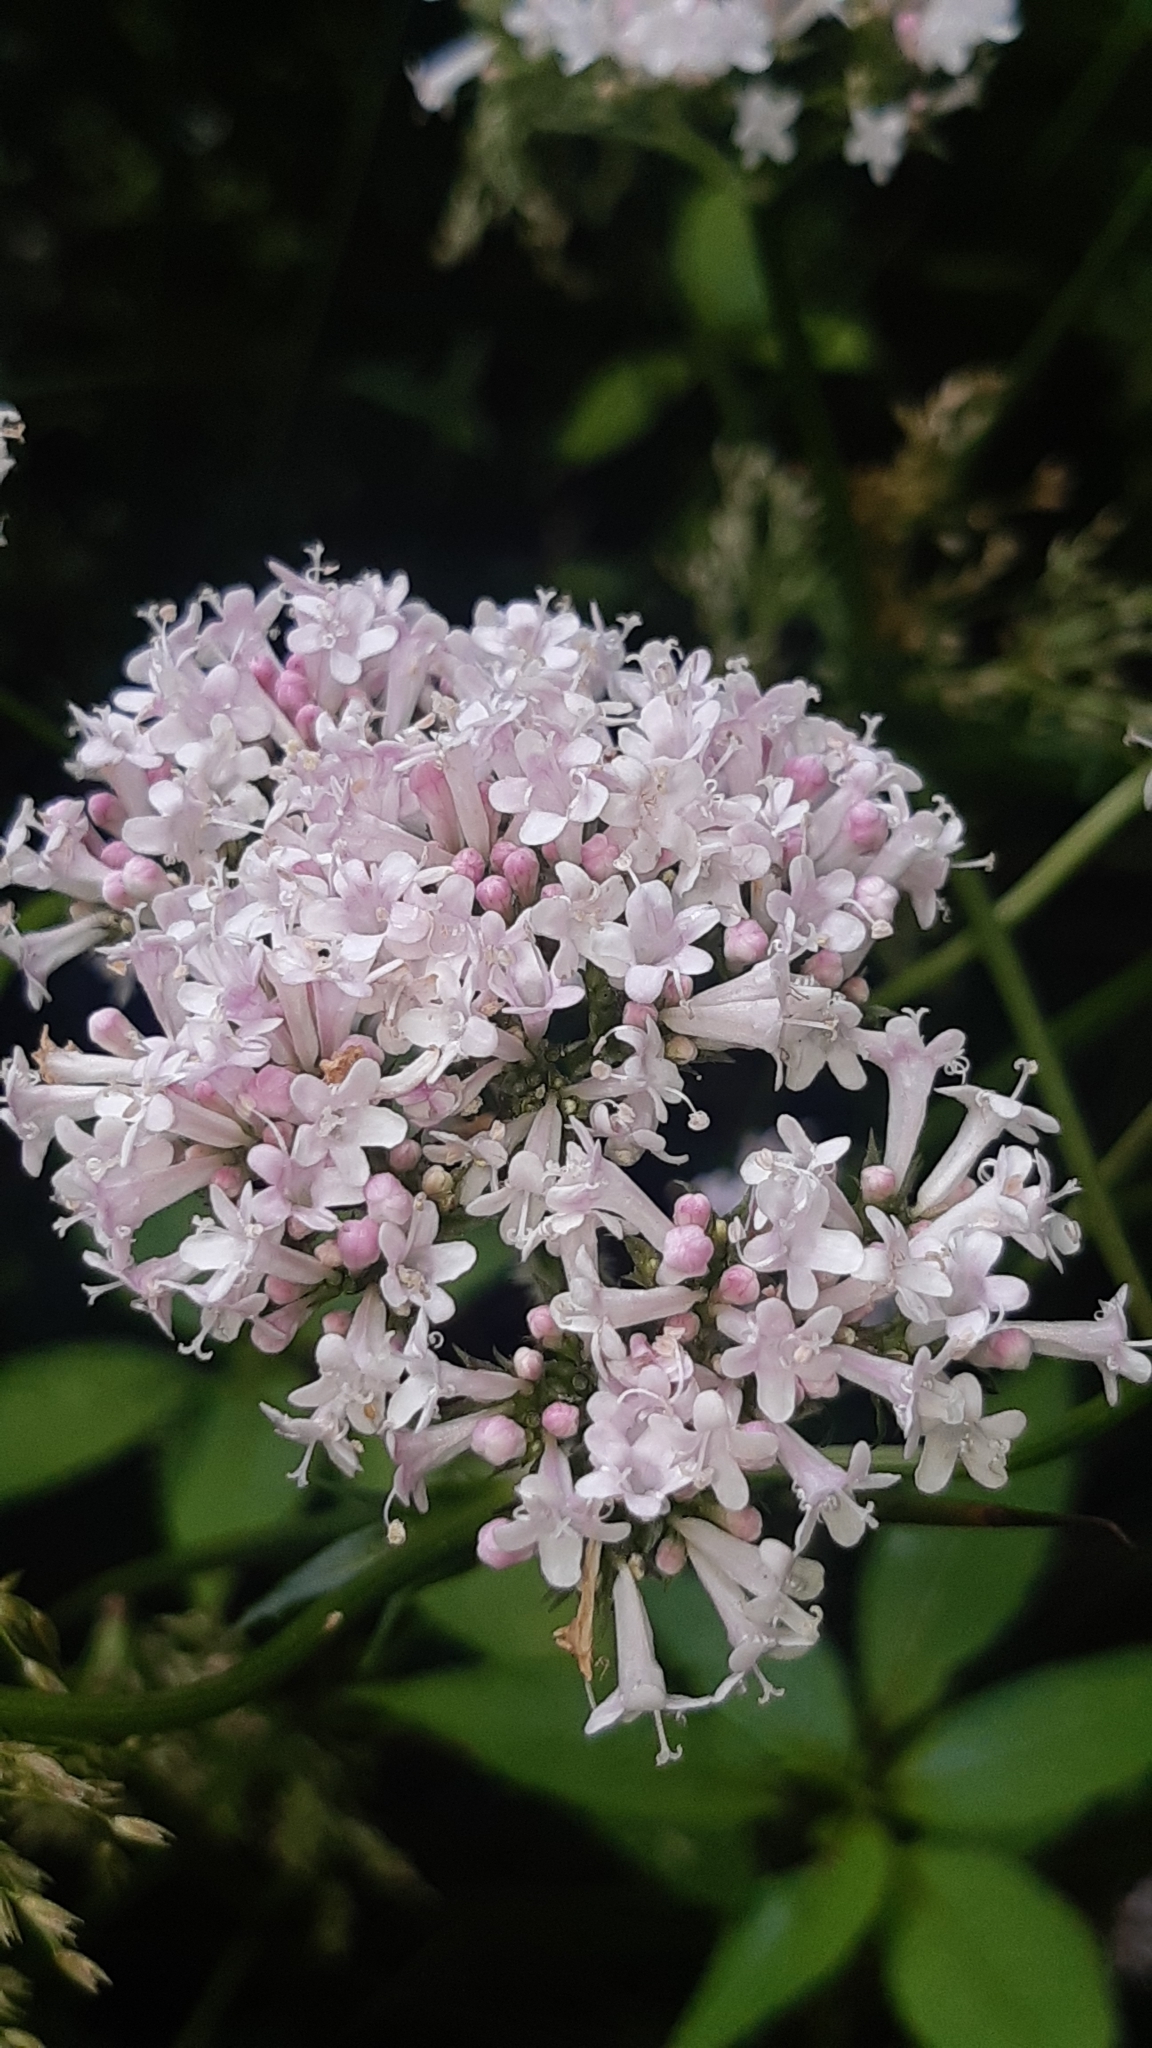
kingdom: Plantae
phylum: Tracheophyta
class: Magnoliopsida
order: Dipsacales
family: Caprifoliaceae
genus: Valeriana
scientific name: Valeriana officinalis
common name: Common valerian
